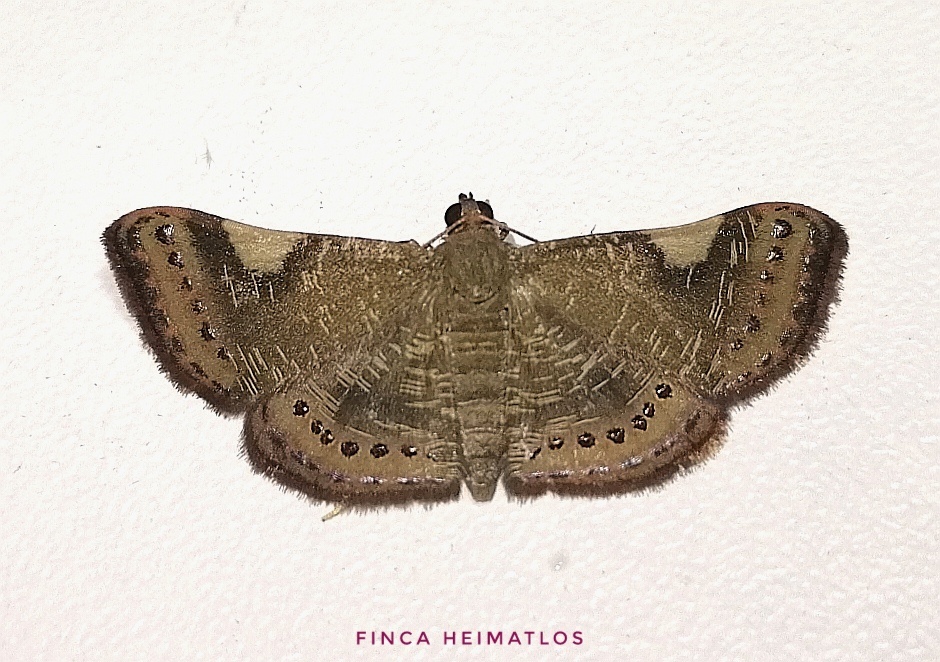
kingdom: Animalia
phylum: Arthropoda
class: Insecta
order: Lepidoptera
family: Geometridae
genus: Aplogompha
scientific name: Aplogompha costimaculata
